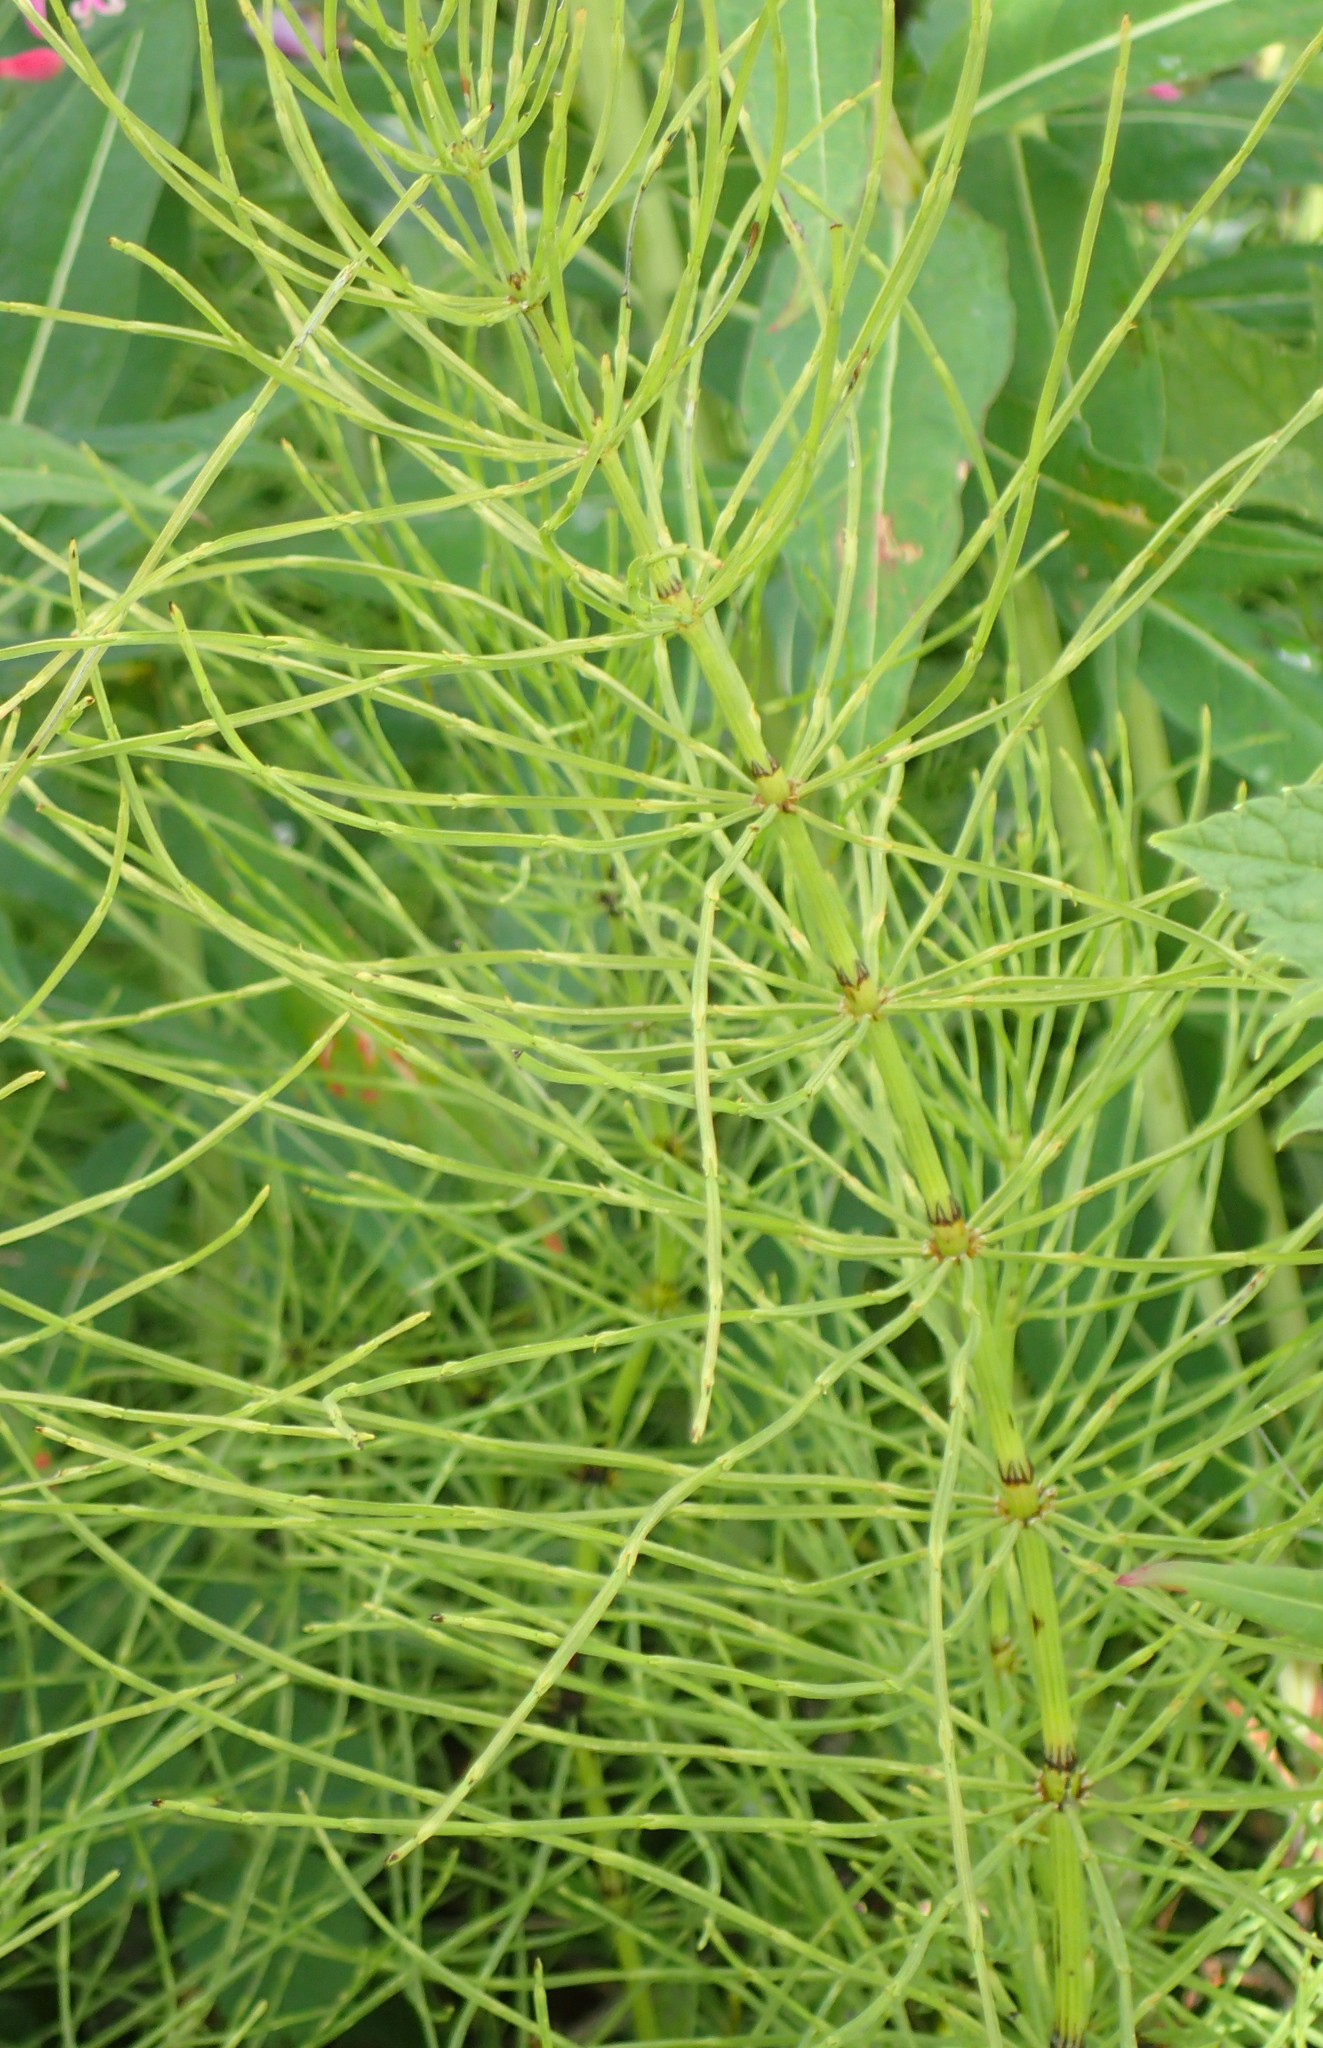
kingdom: Plantae
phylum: Tracheophyta
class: Polypodiopsida
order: Equisetales
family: Equisetaceae
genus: Equisetum
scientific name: Equisetum arvense
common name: Field horsetail
